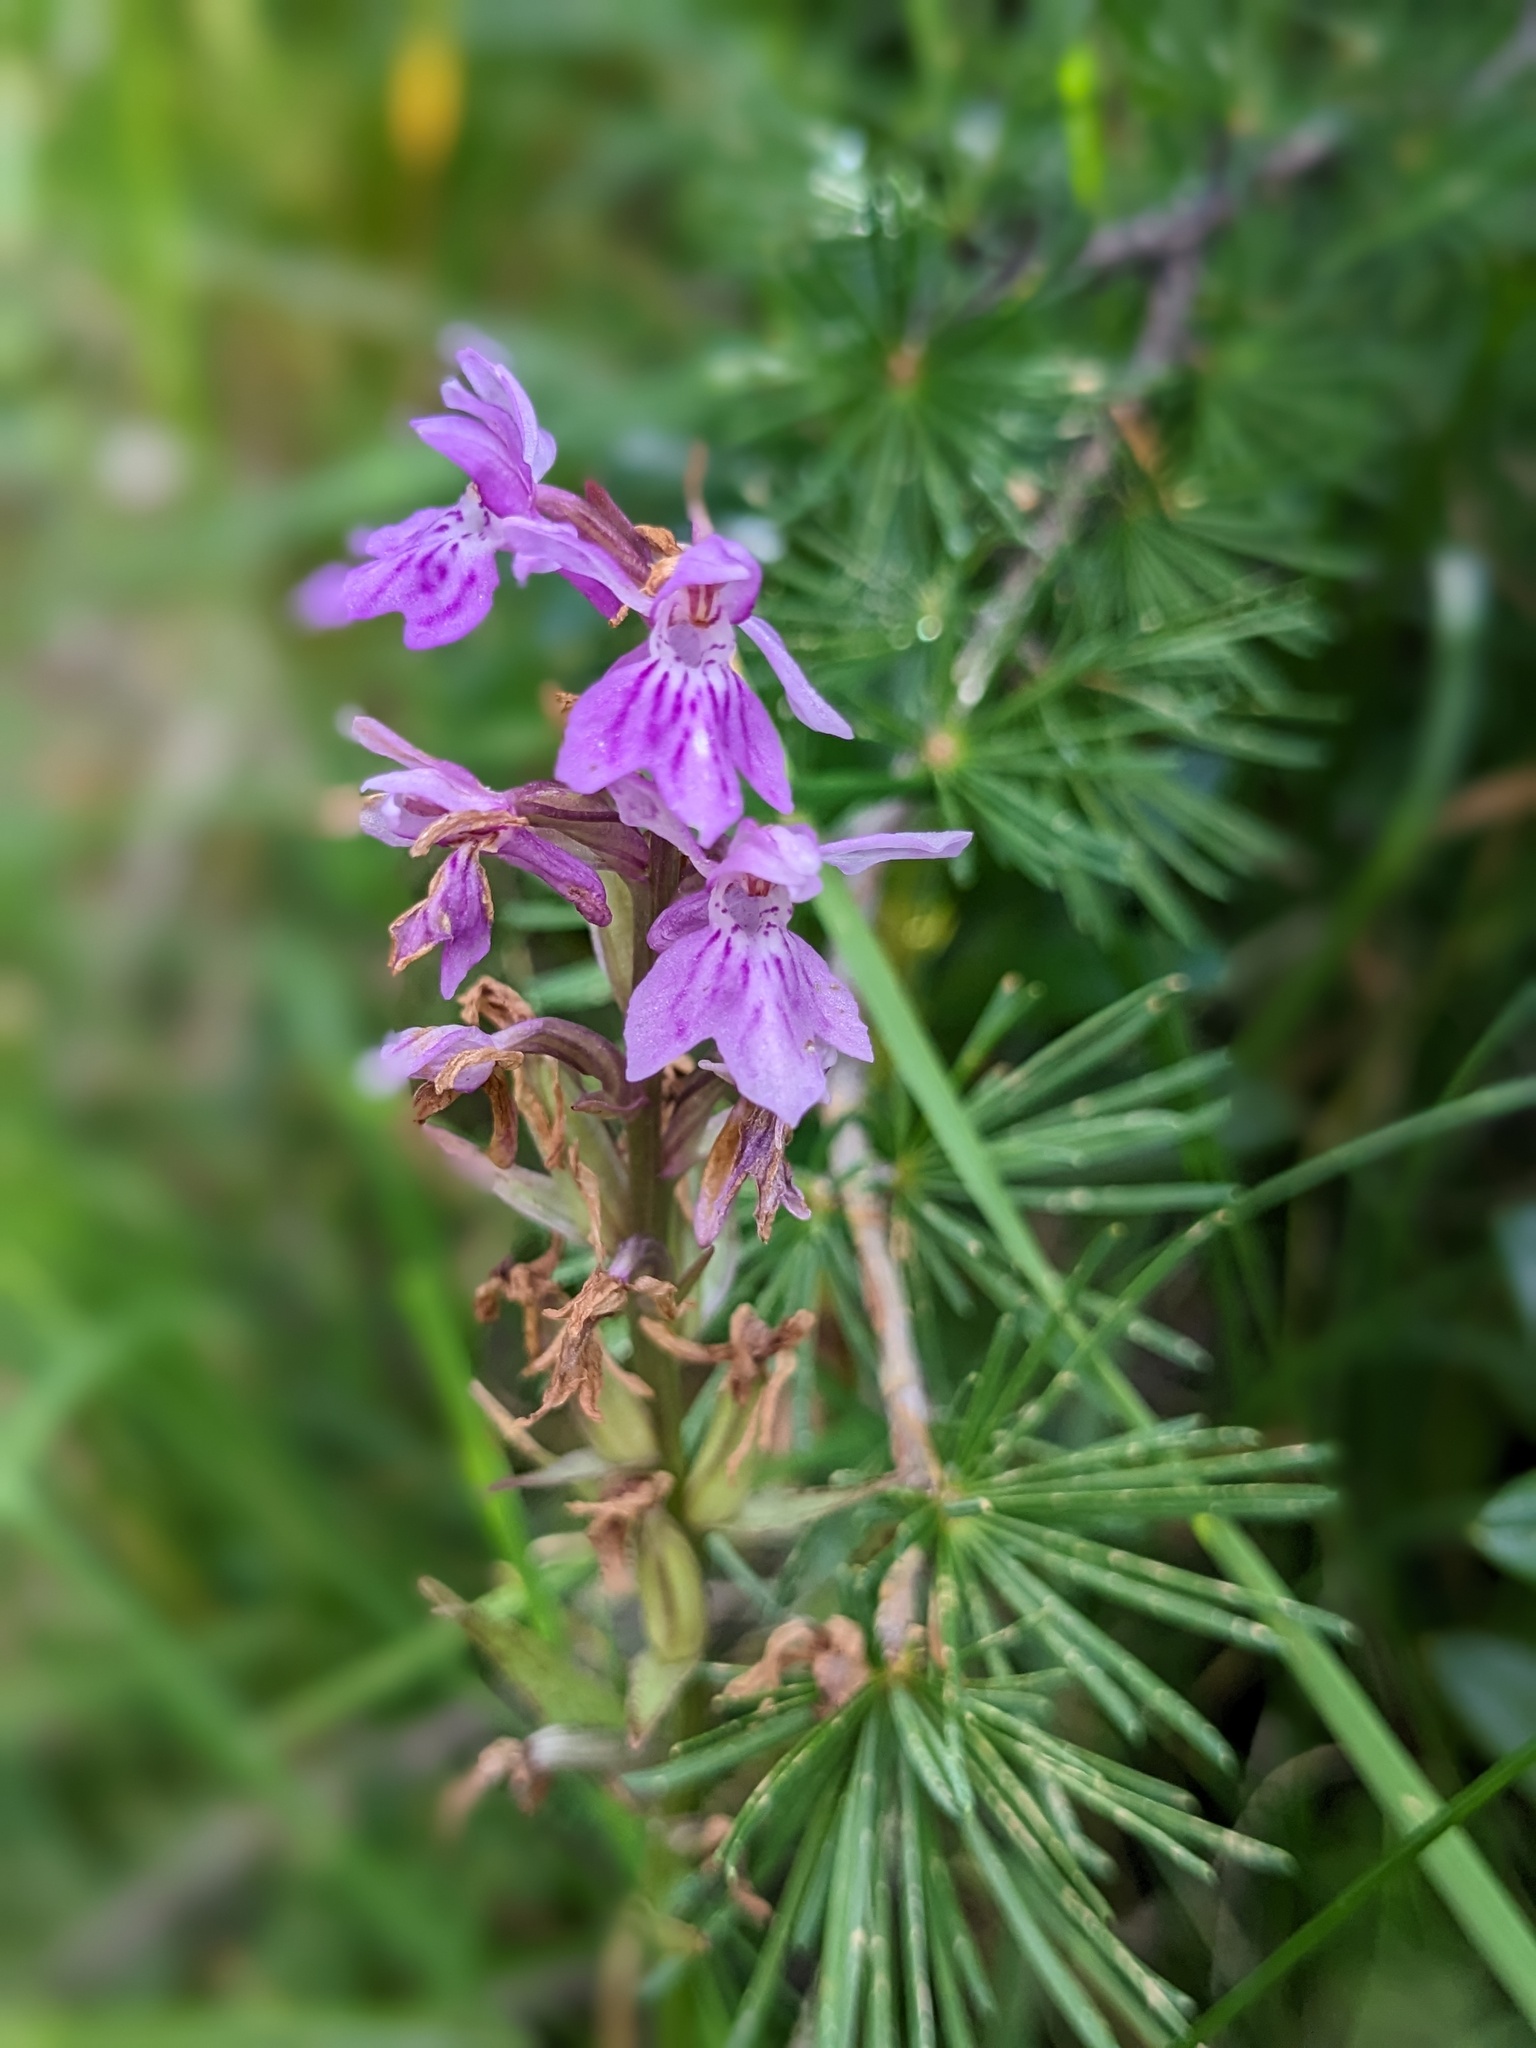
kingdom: Plantae
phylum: Tracheophyta
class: Liliopsida
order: Asparagales
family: Orchidaceae
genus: Dactylorhiza
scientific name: Dactylorhiza maculata
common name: Heath spotted-orchid
